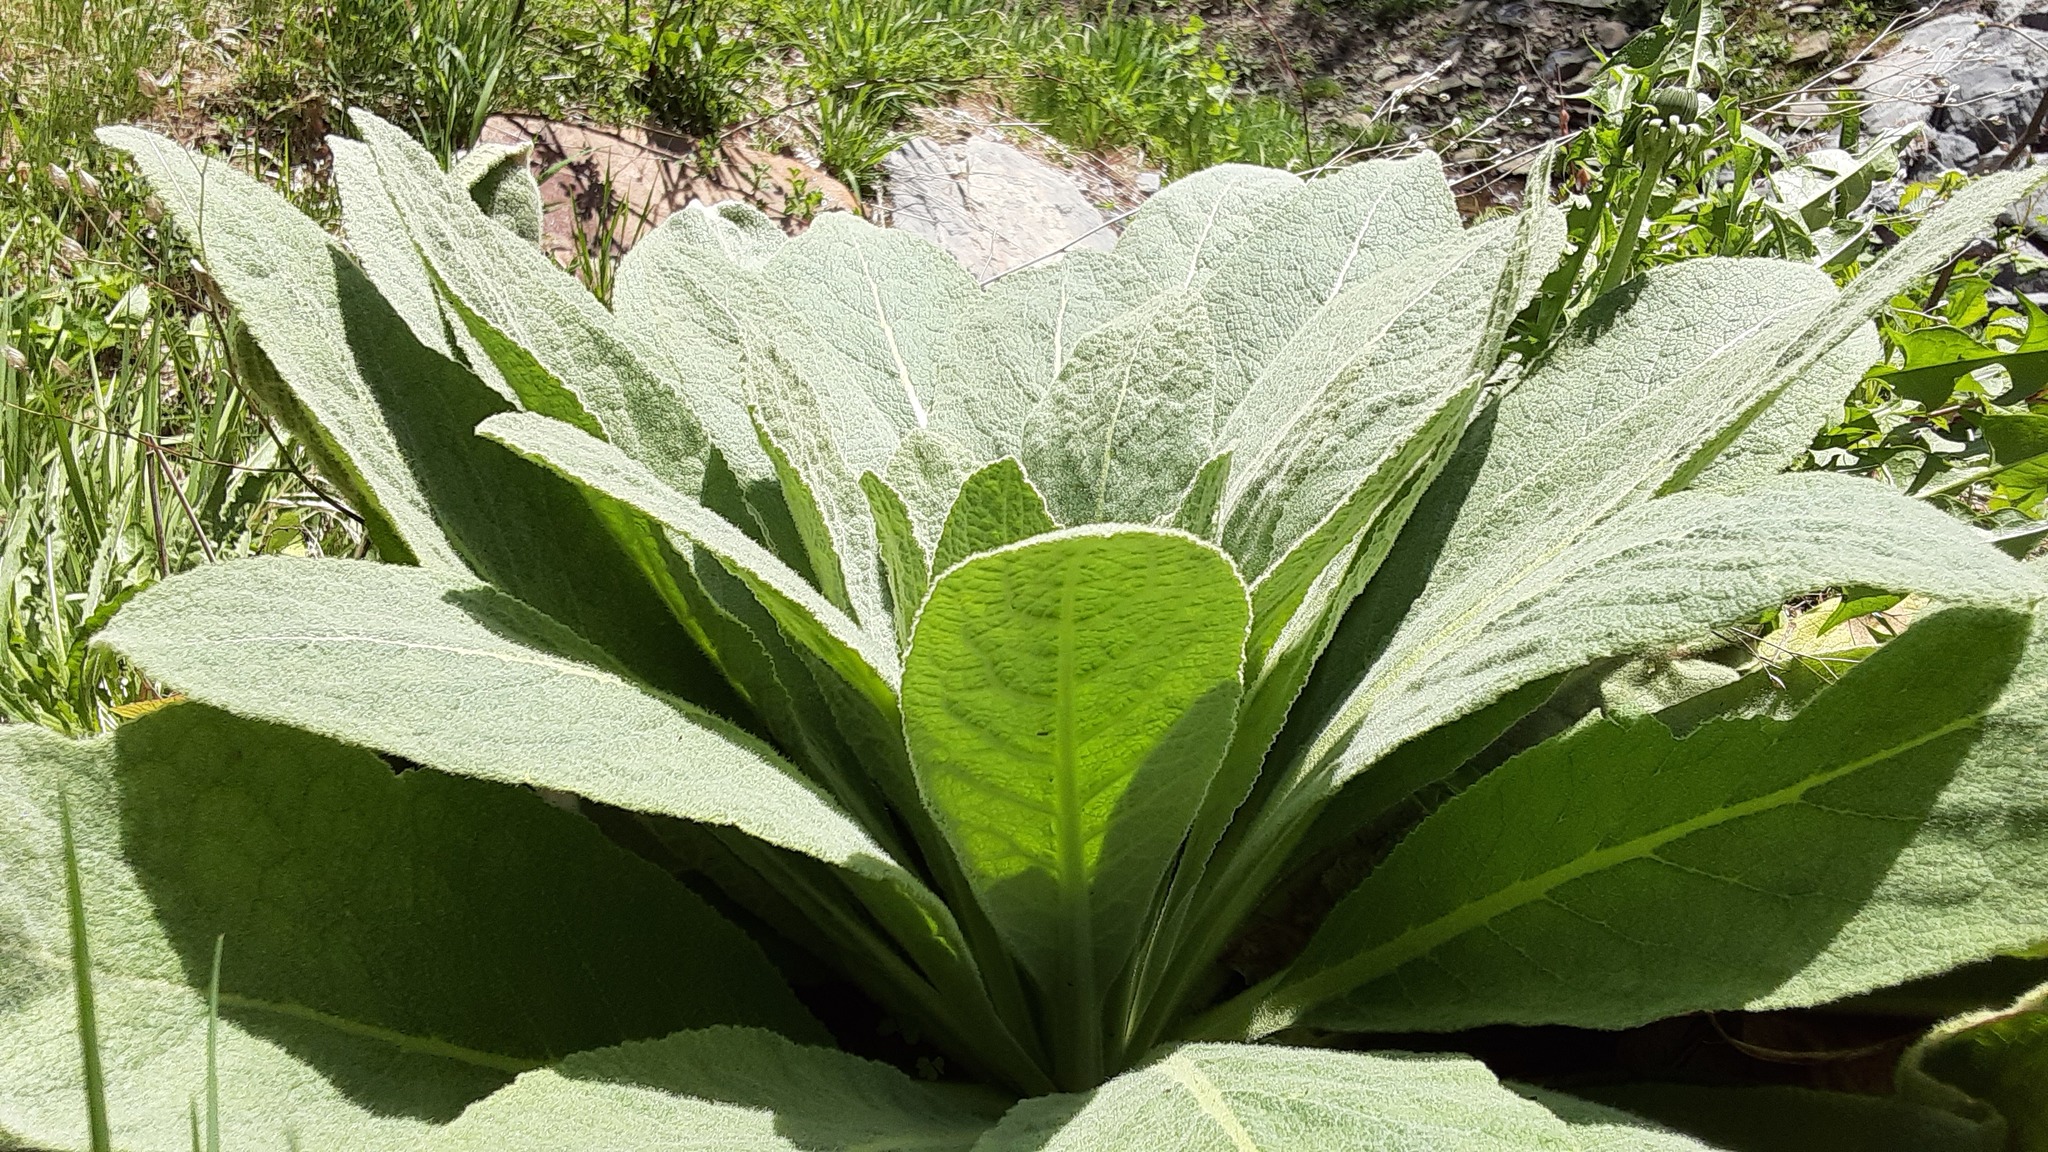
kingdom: Plantae
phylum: Tracheophyta
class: Magnoliopsida
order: Lamiales
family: Scrophulariaceae
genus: Verbascum
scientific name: Verbascum thapsus
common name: Common mullein
